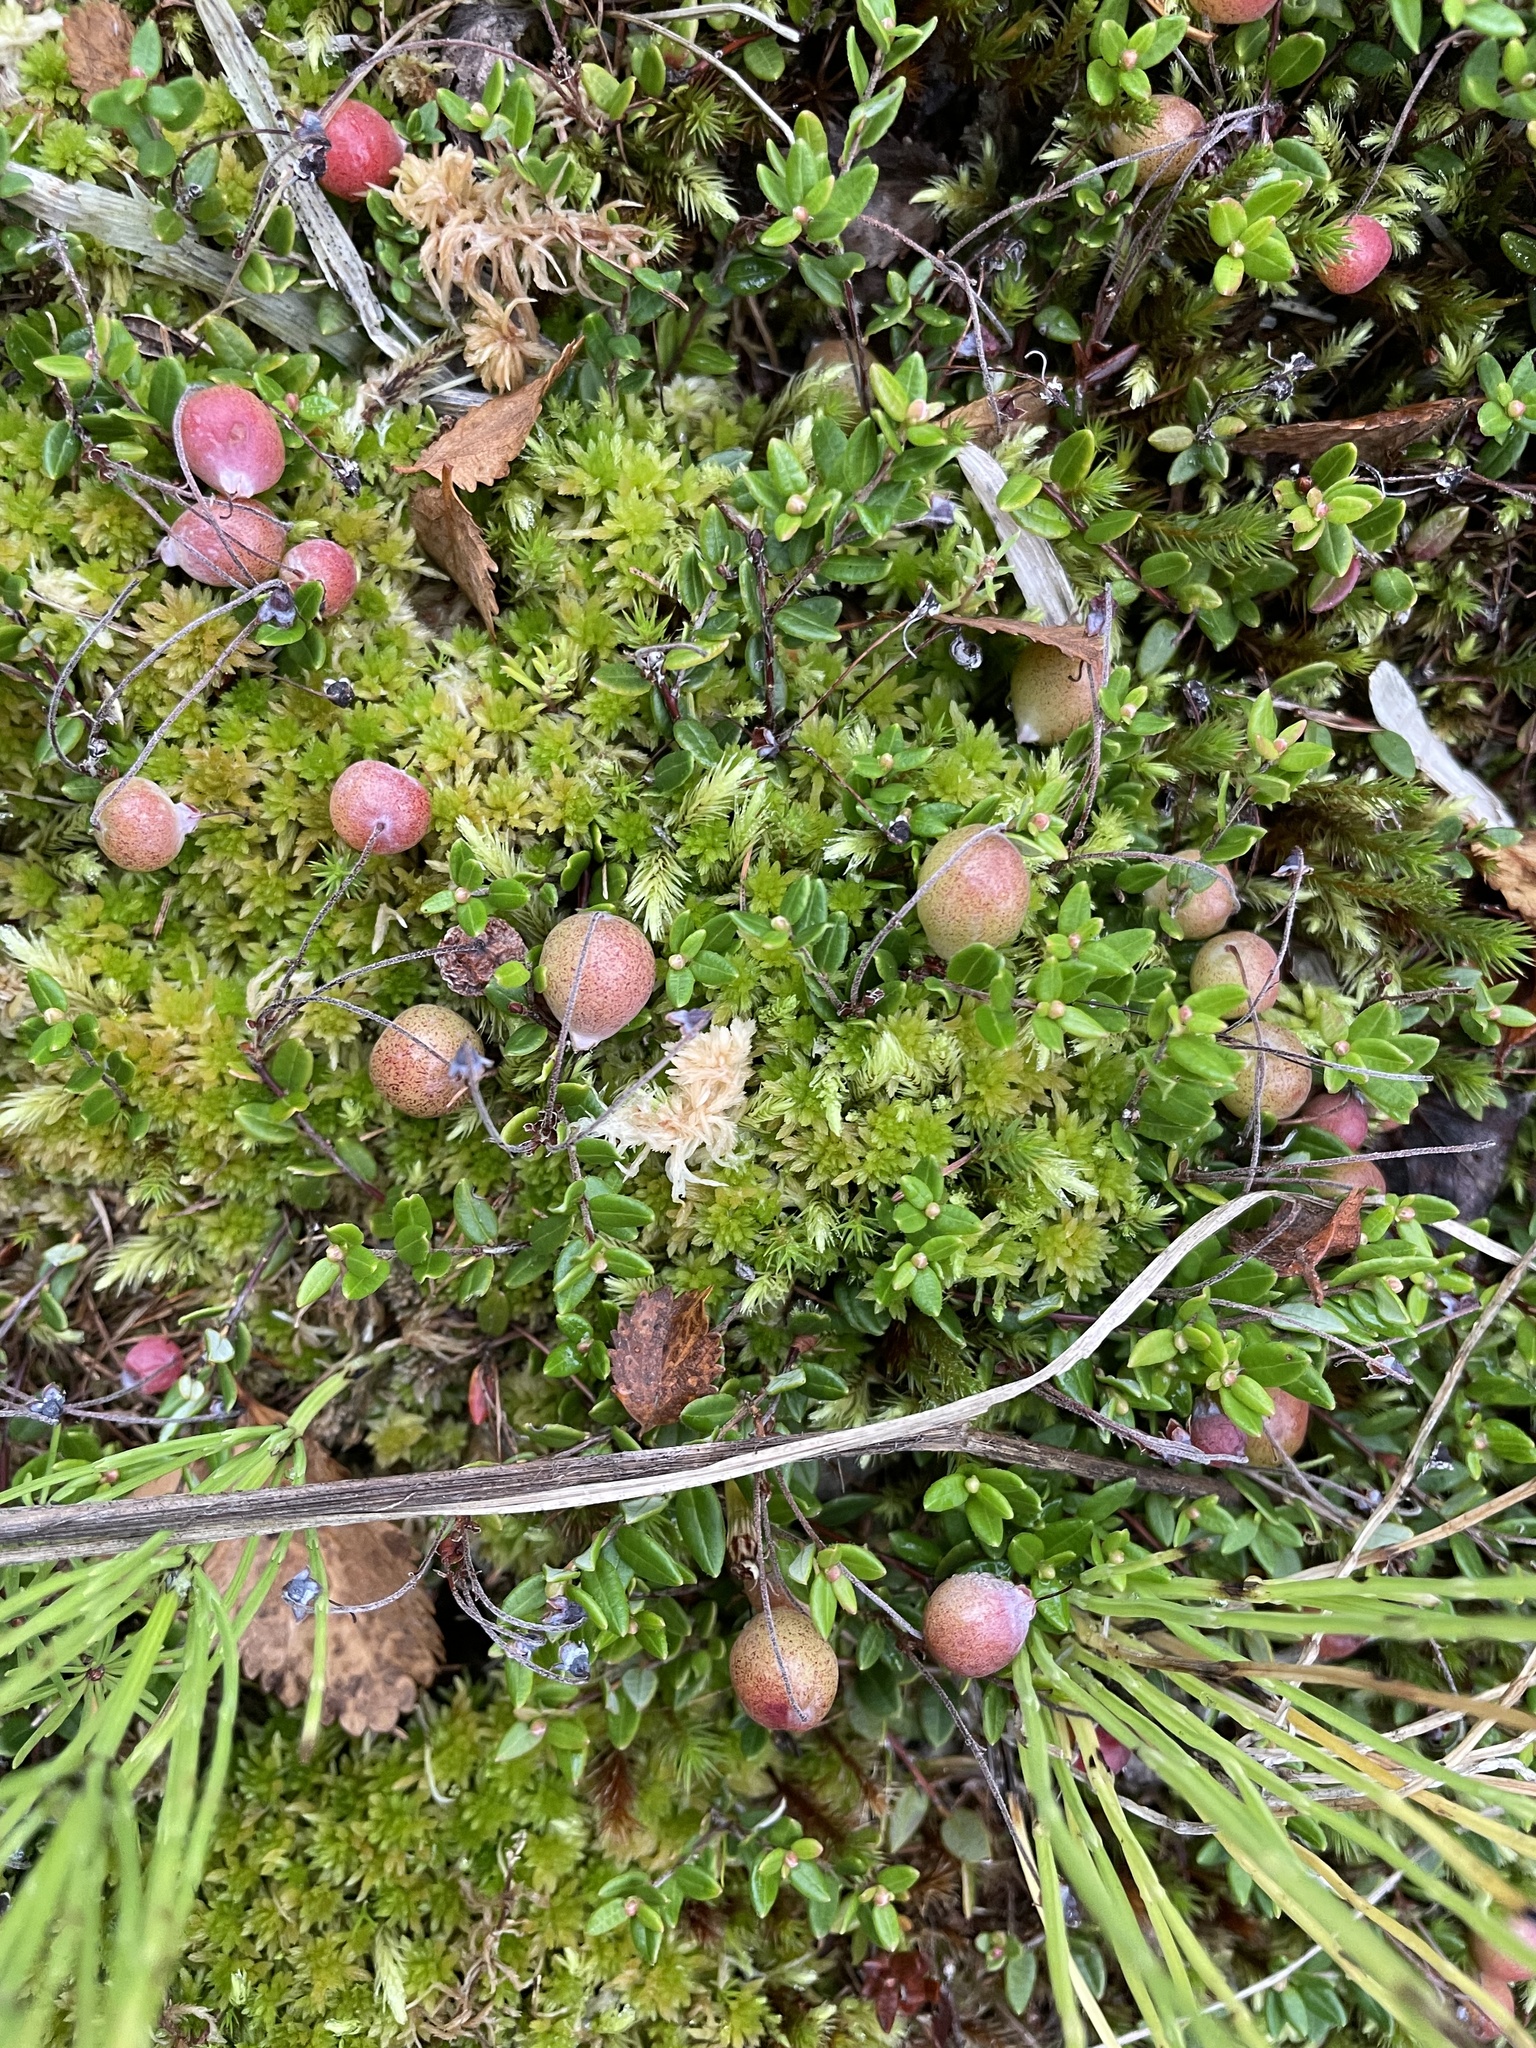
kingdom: Plantae
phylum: Tracheophyta
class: Magnoliopsida
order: Ericales
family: Ericaceae
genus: Vaccinium
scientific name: Vaccinium oxycoccos
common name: Cranberry
